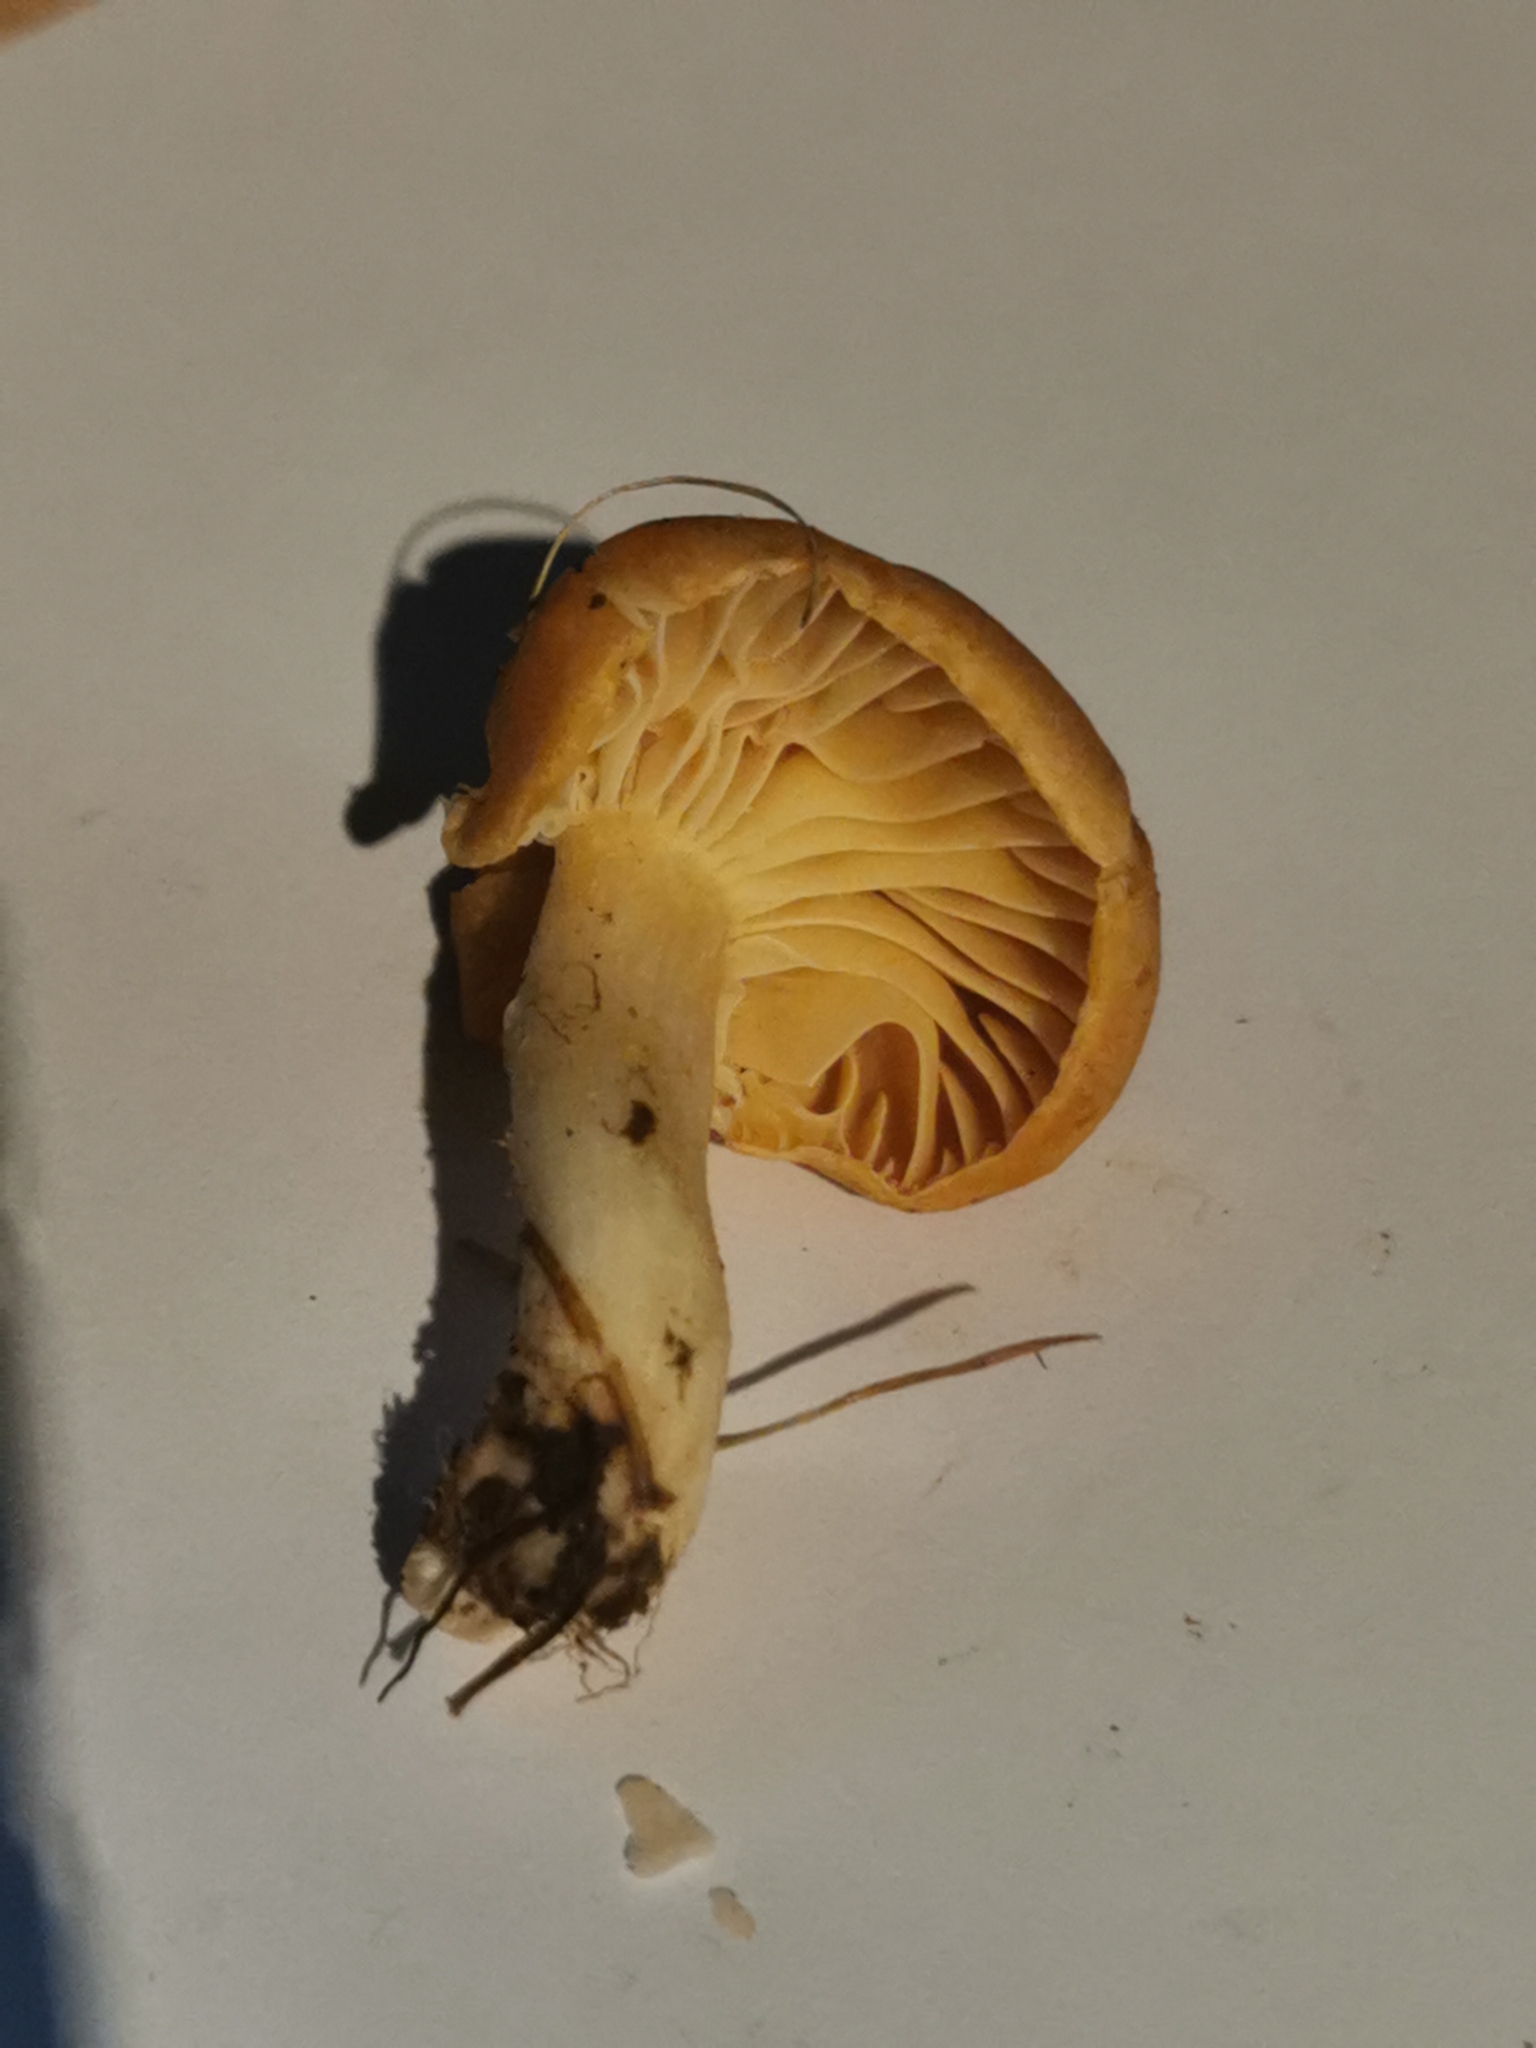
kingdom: Fungi
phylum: Basidiomycota
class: Agaricomycetes
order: Agaricales
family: Hygrophoraceae
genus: Cuphophyllus
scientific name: Cuphophyllus pratensis
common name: Meadow waxcap
